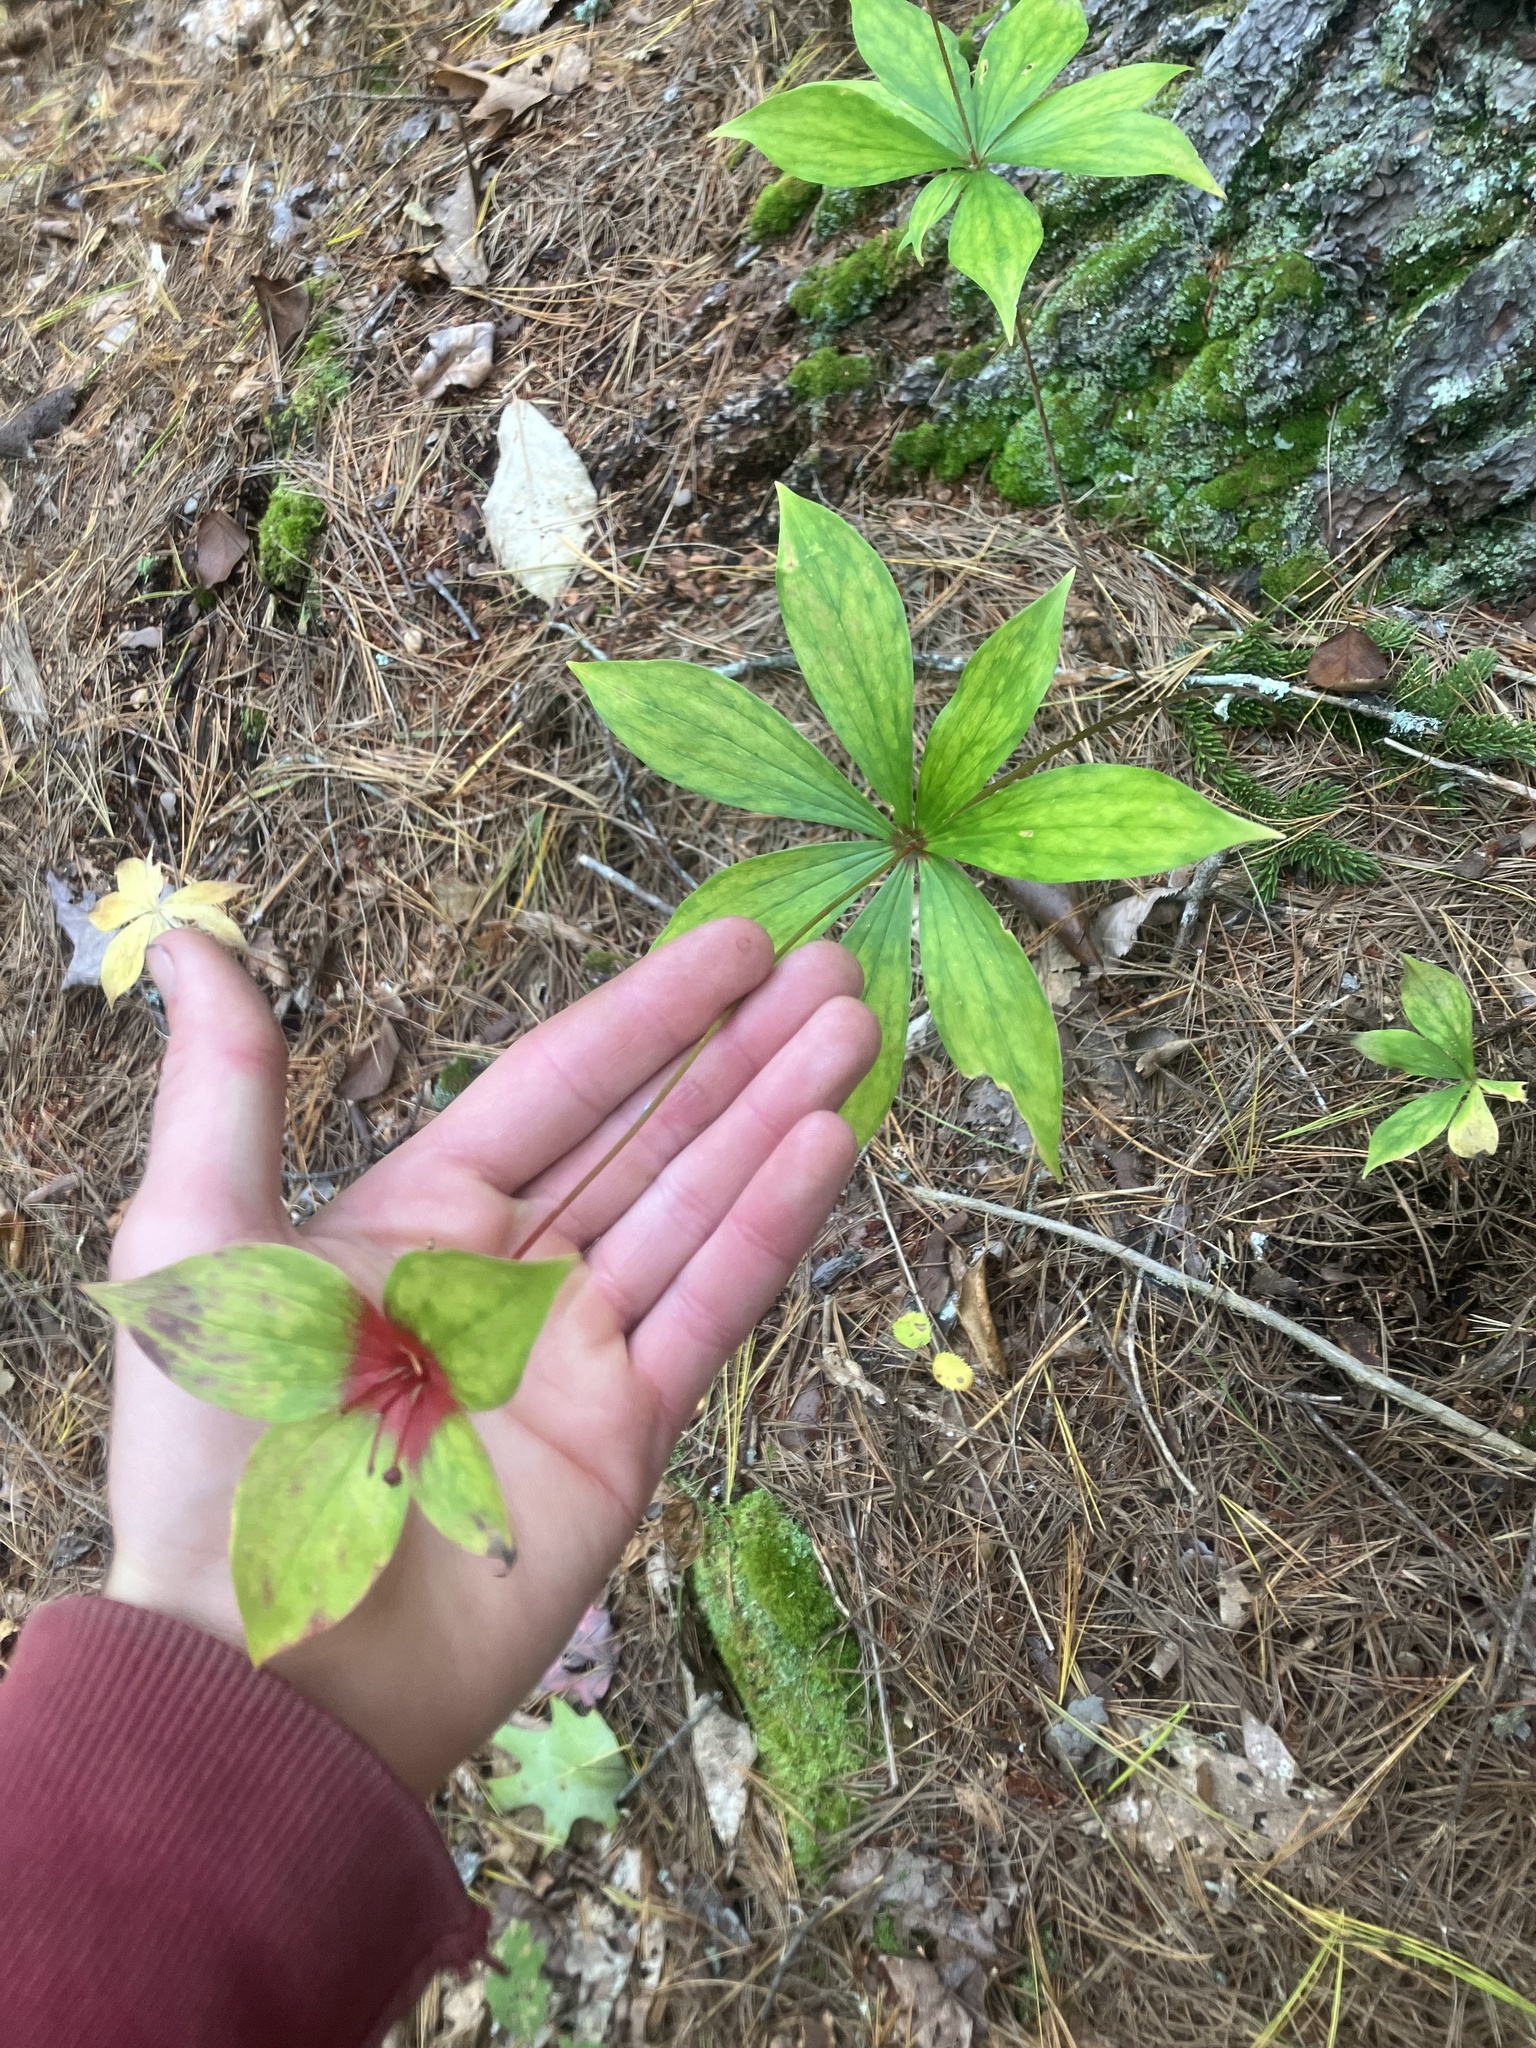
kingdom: Plantae
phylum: Tracheophyta
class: Liliopsida
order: Liliales
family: Liliaceae
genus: Medeola
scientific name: Medeola virginiana
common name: Indian cucumber-root
